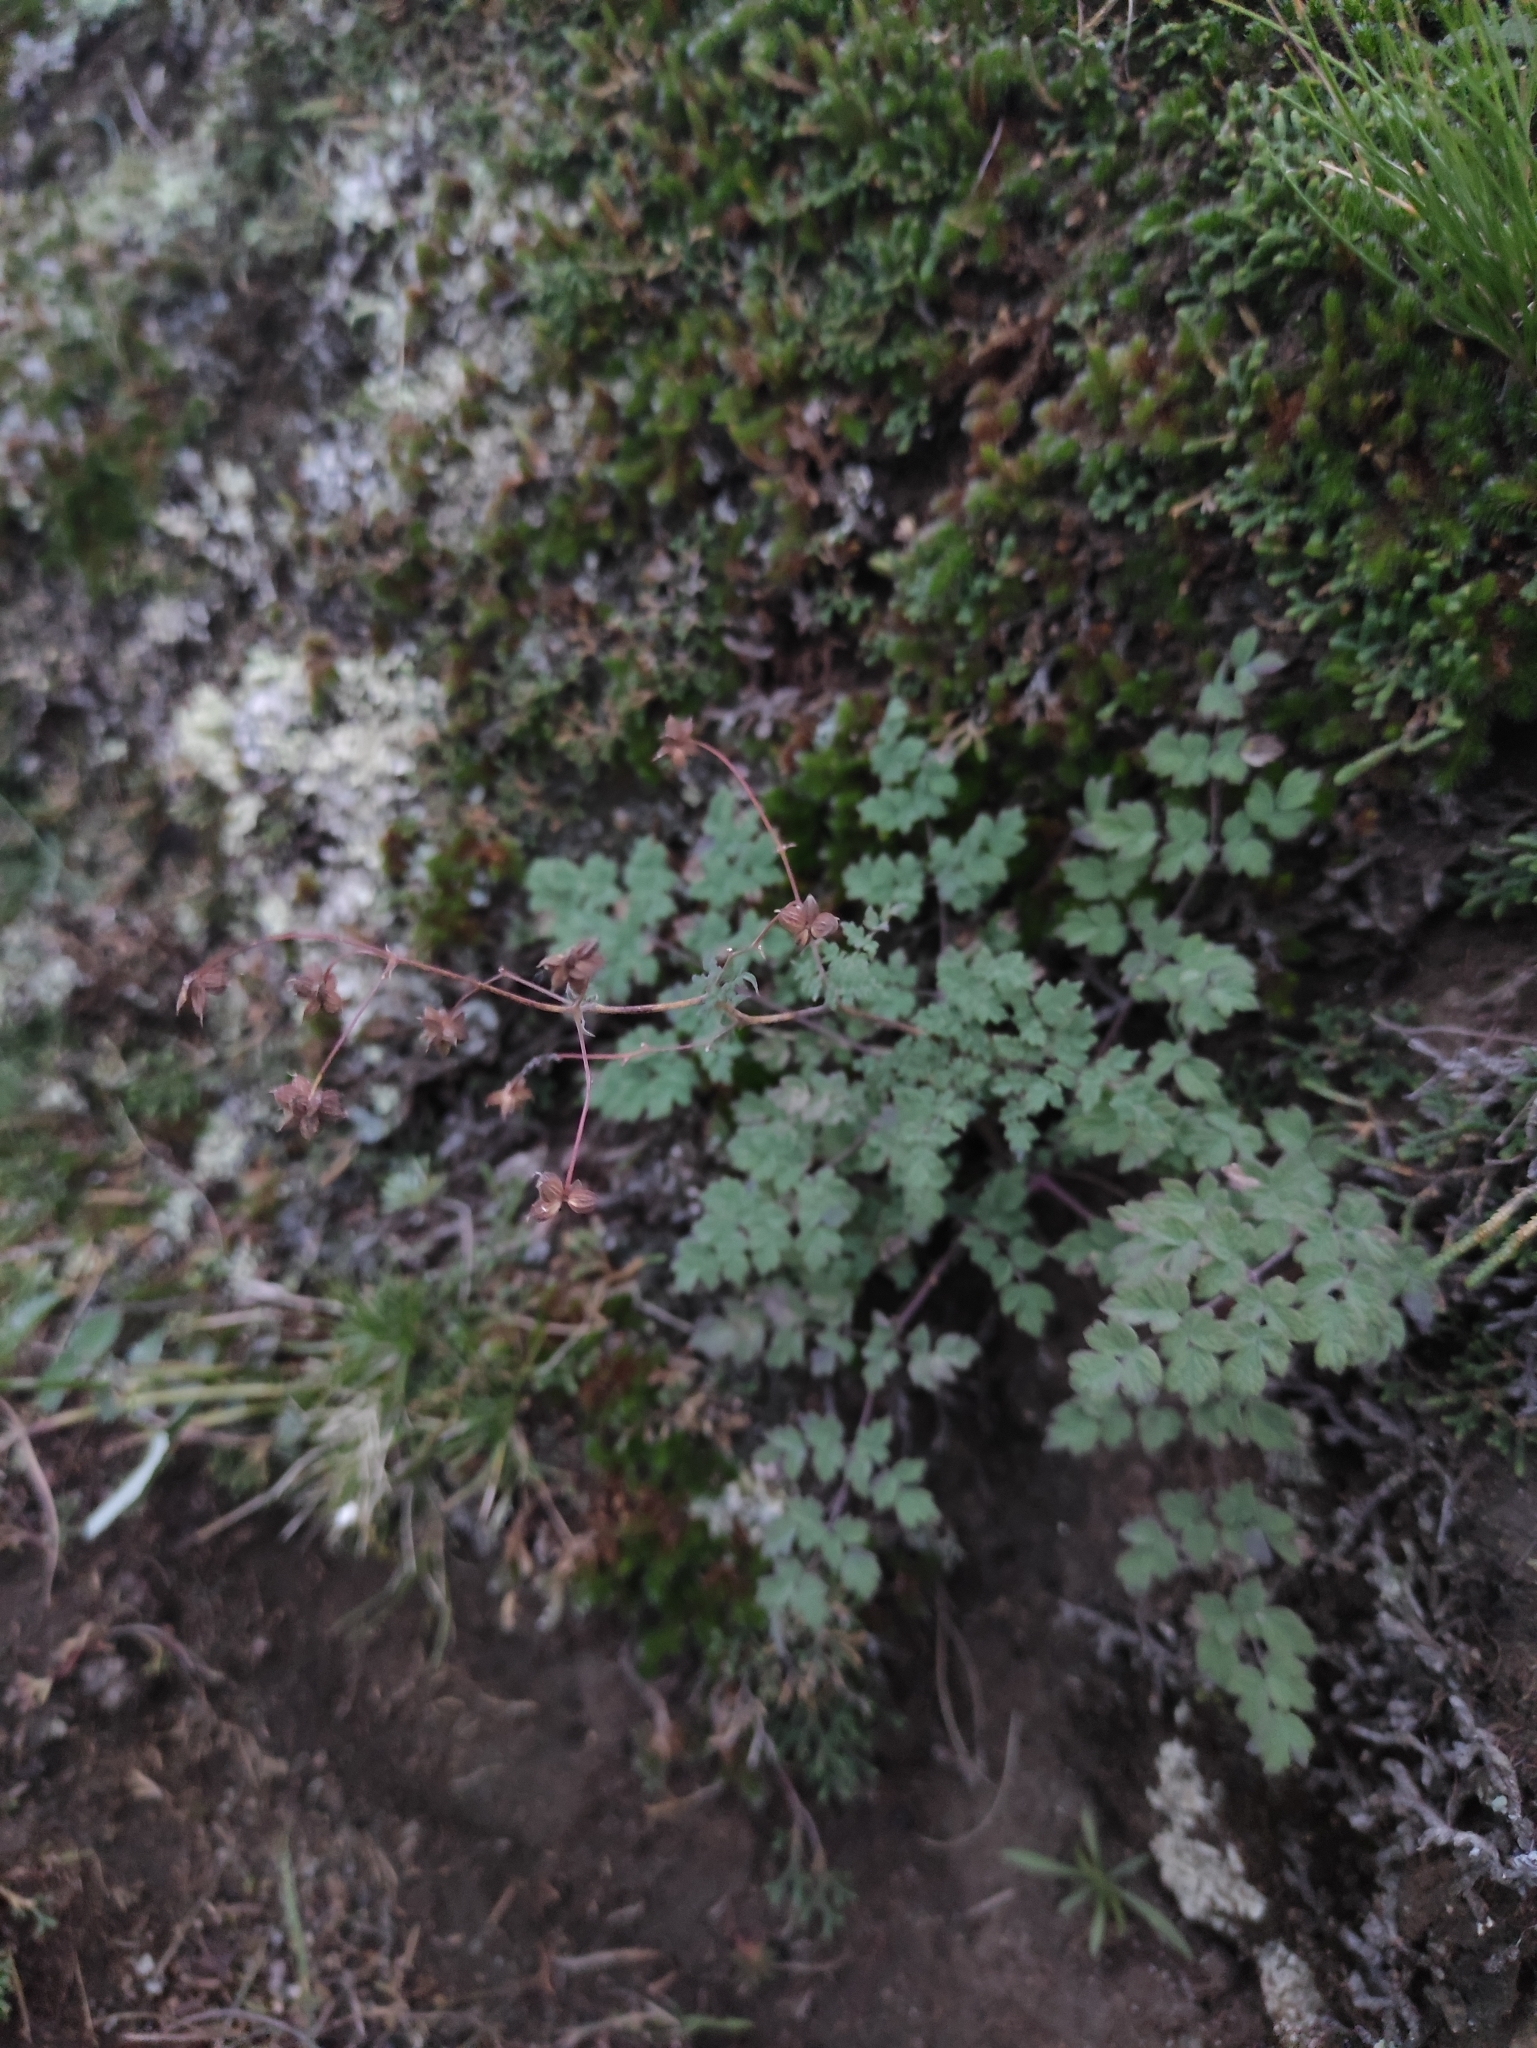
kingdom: Plantae
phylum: Tracheophyta
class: Magnoliopsida
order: Ranunculales
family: Ranunculaceae
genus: Thalictrum
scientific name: Thalictrum foetidum
